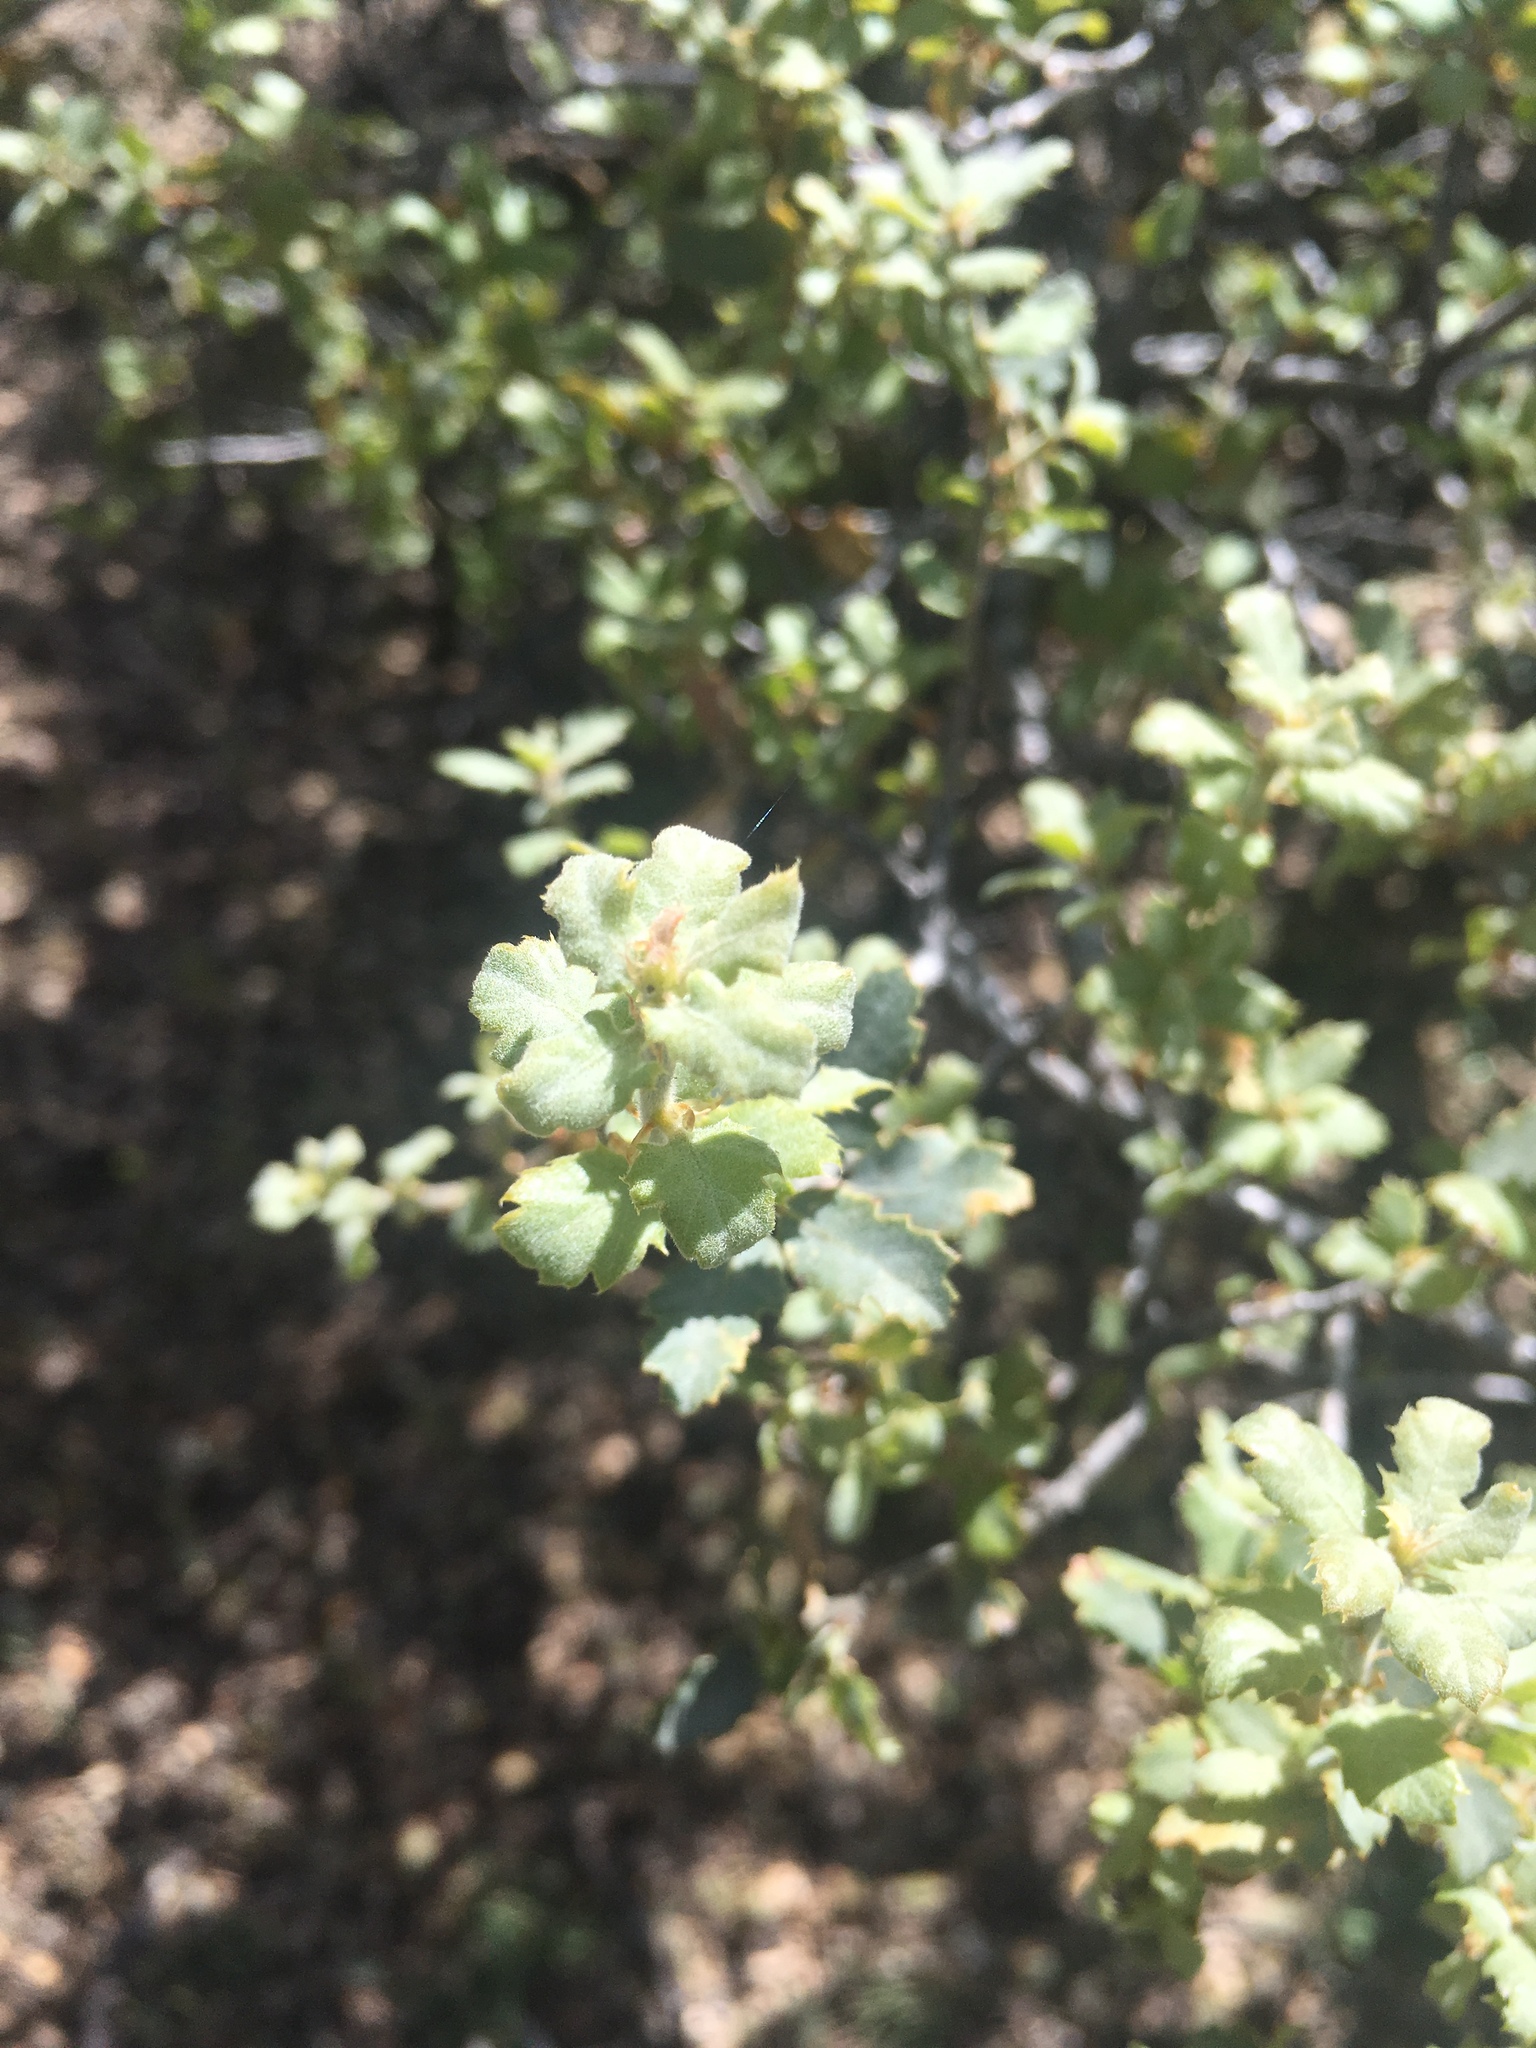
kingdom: Plantae
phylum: Tracheophyta
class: Magnoliopsida
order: Fagales
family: Fagaceae
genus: Quercus
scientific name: Quercus john-tuckeri
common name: Tucker's oak
